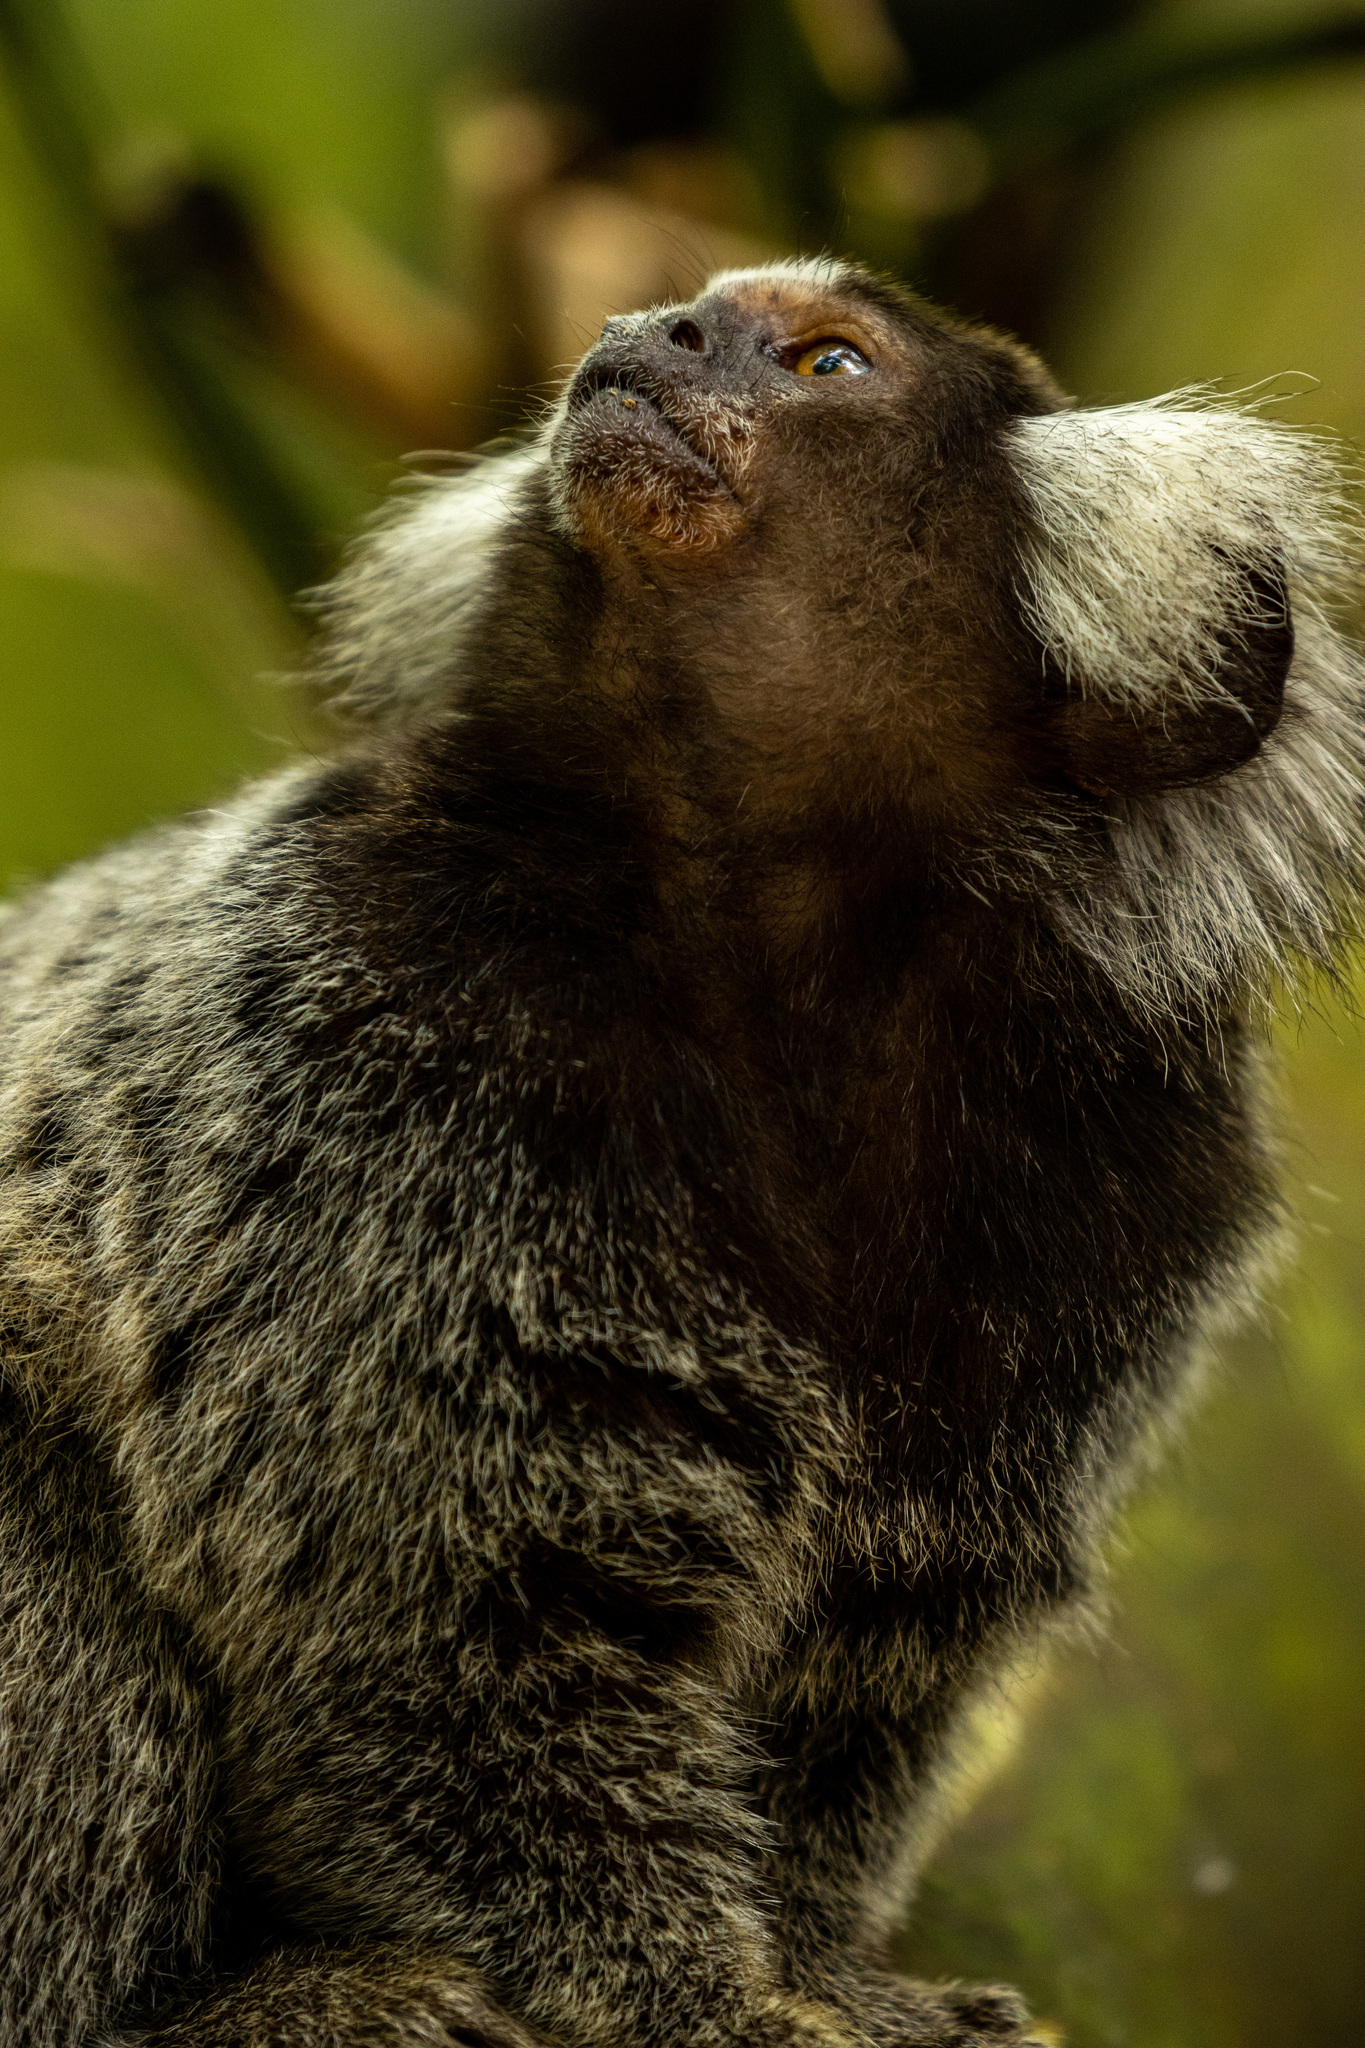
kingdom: Animalia
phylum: Chordata
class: Mammalia
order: Primates
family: Callitrichidae
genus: Callithrix
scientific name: Callithrix jacchus
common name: Common marmoset
